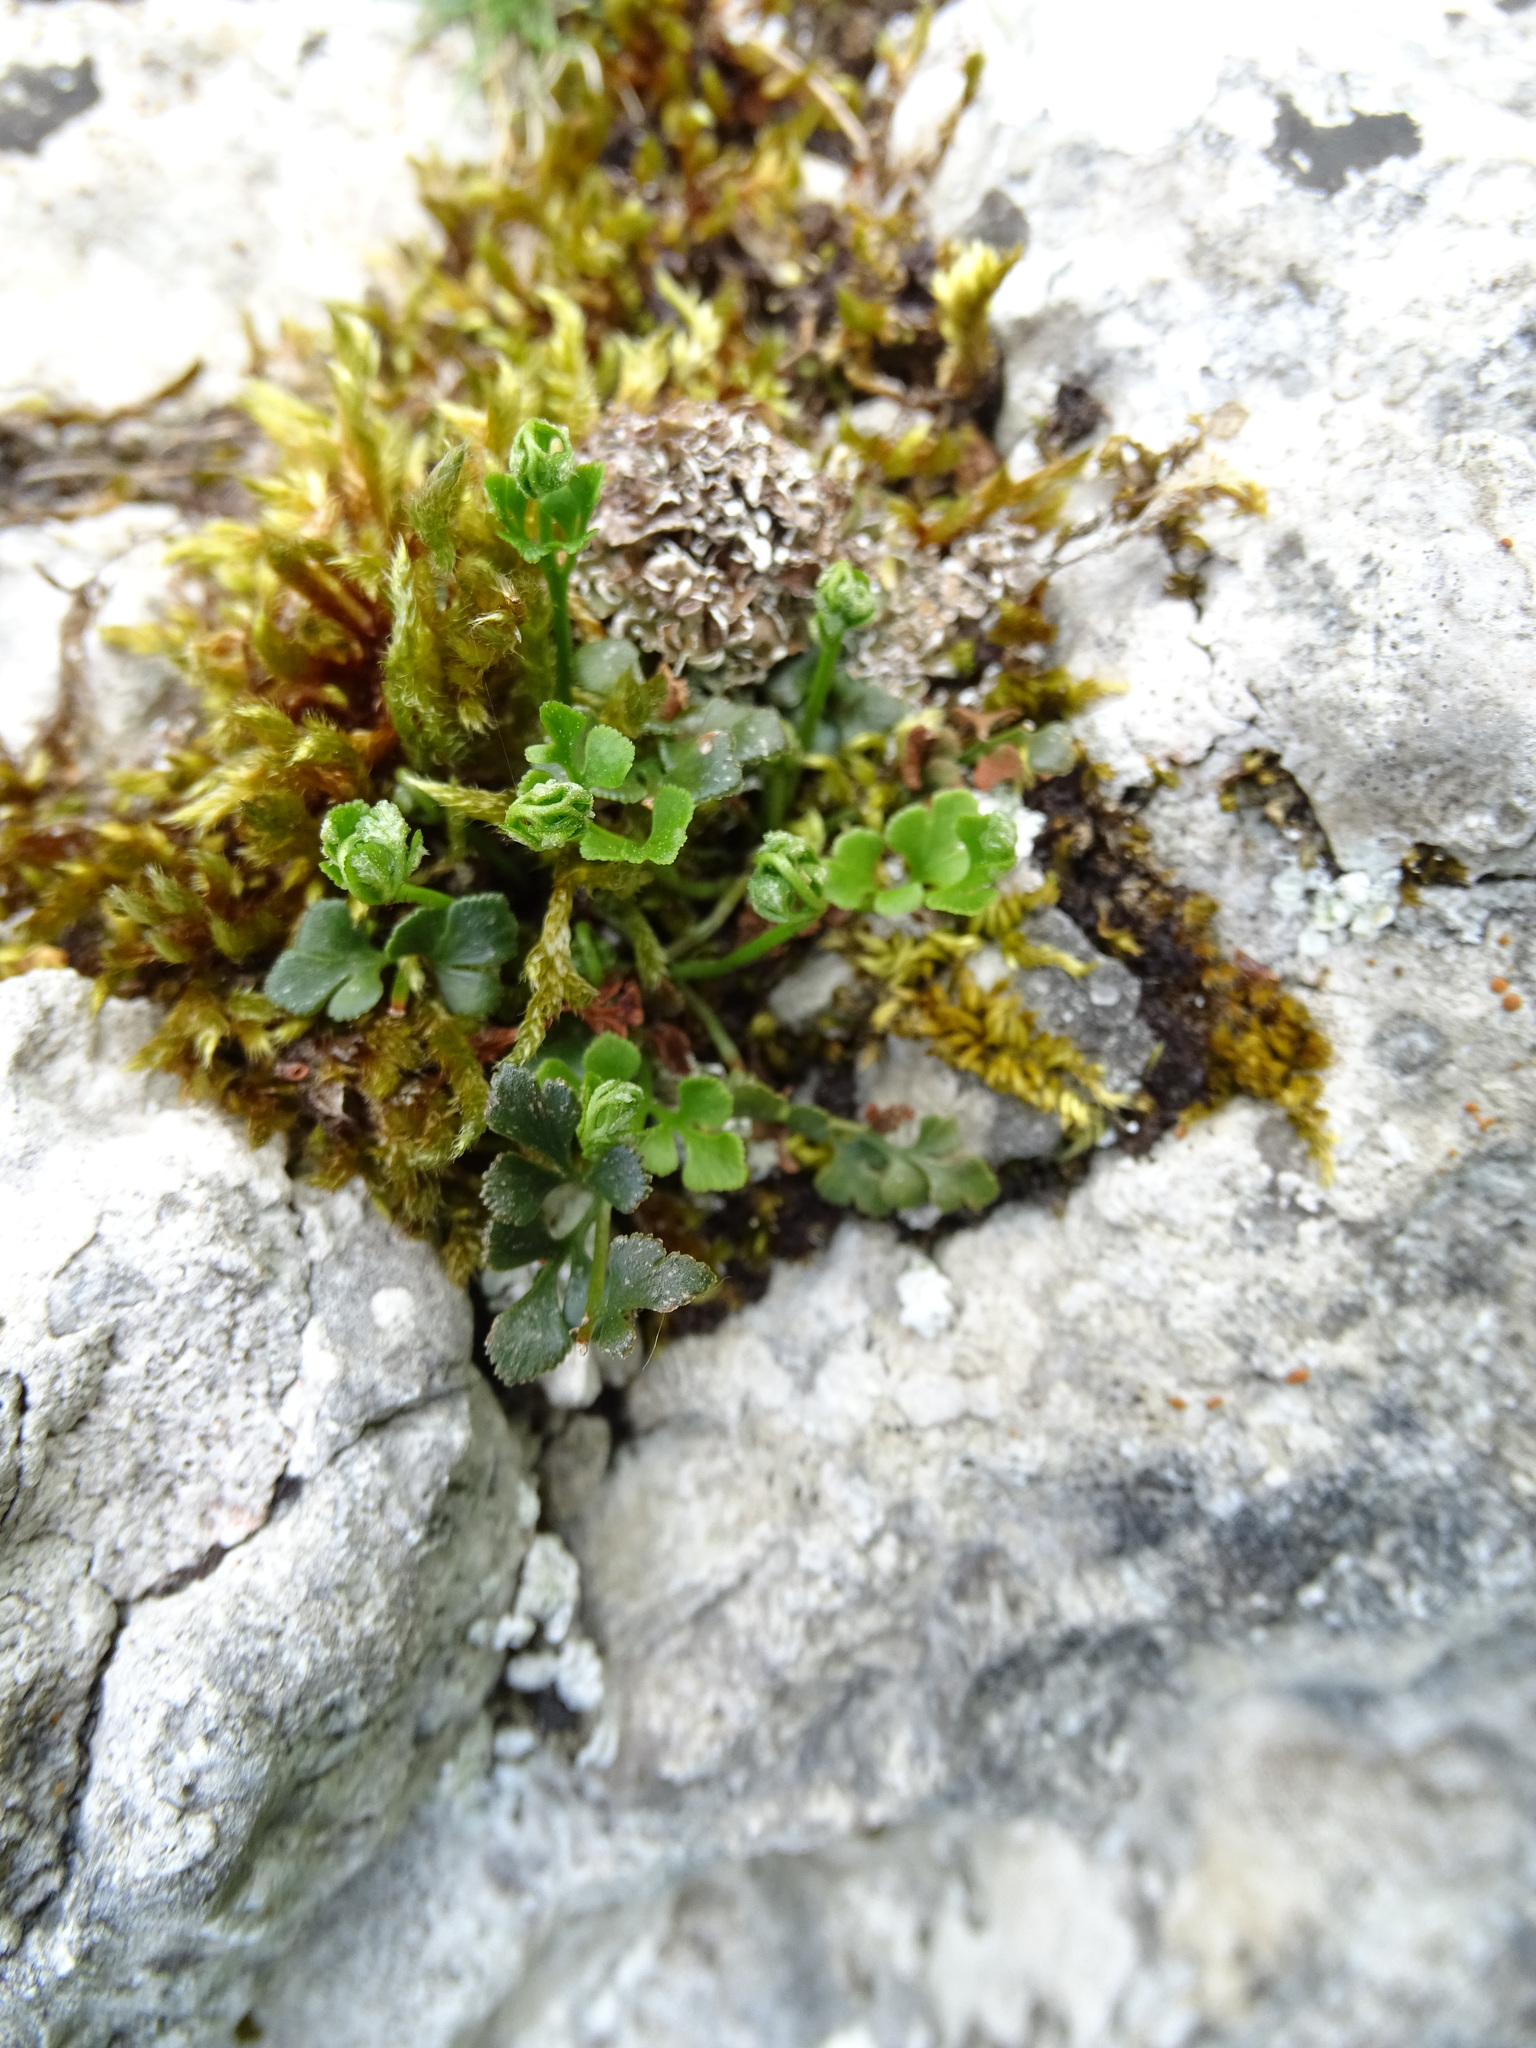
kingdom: Plantae
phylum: Tracheophyta
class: Polypodiopsida
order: Polypodiales
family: Aspleniaceae
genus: Asplenium
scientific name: Asplenium ruta-muraria
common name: Wall-rue
